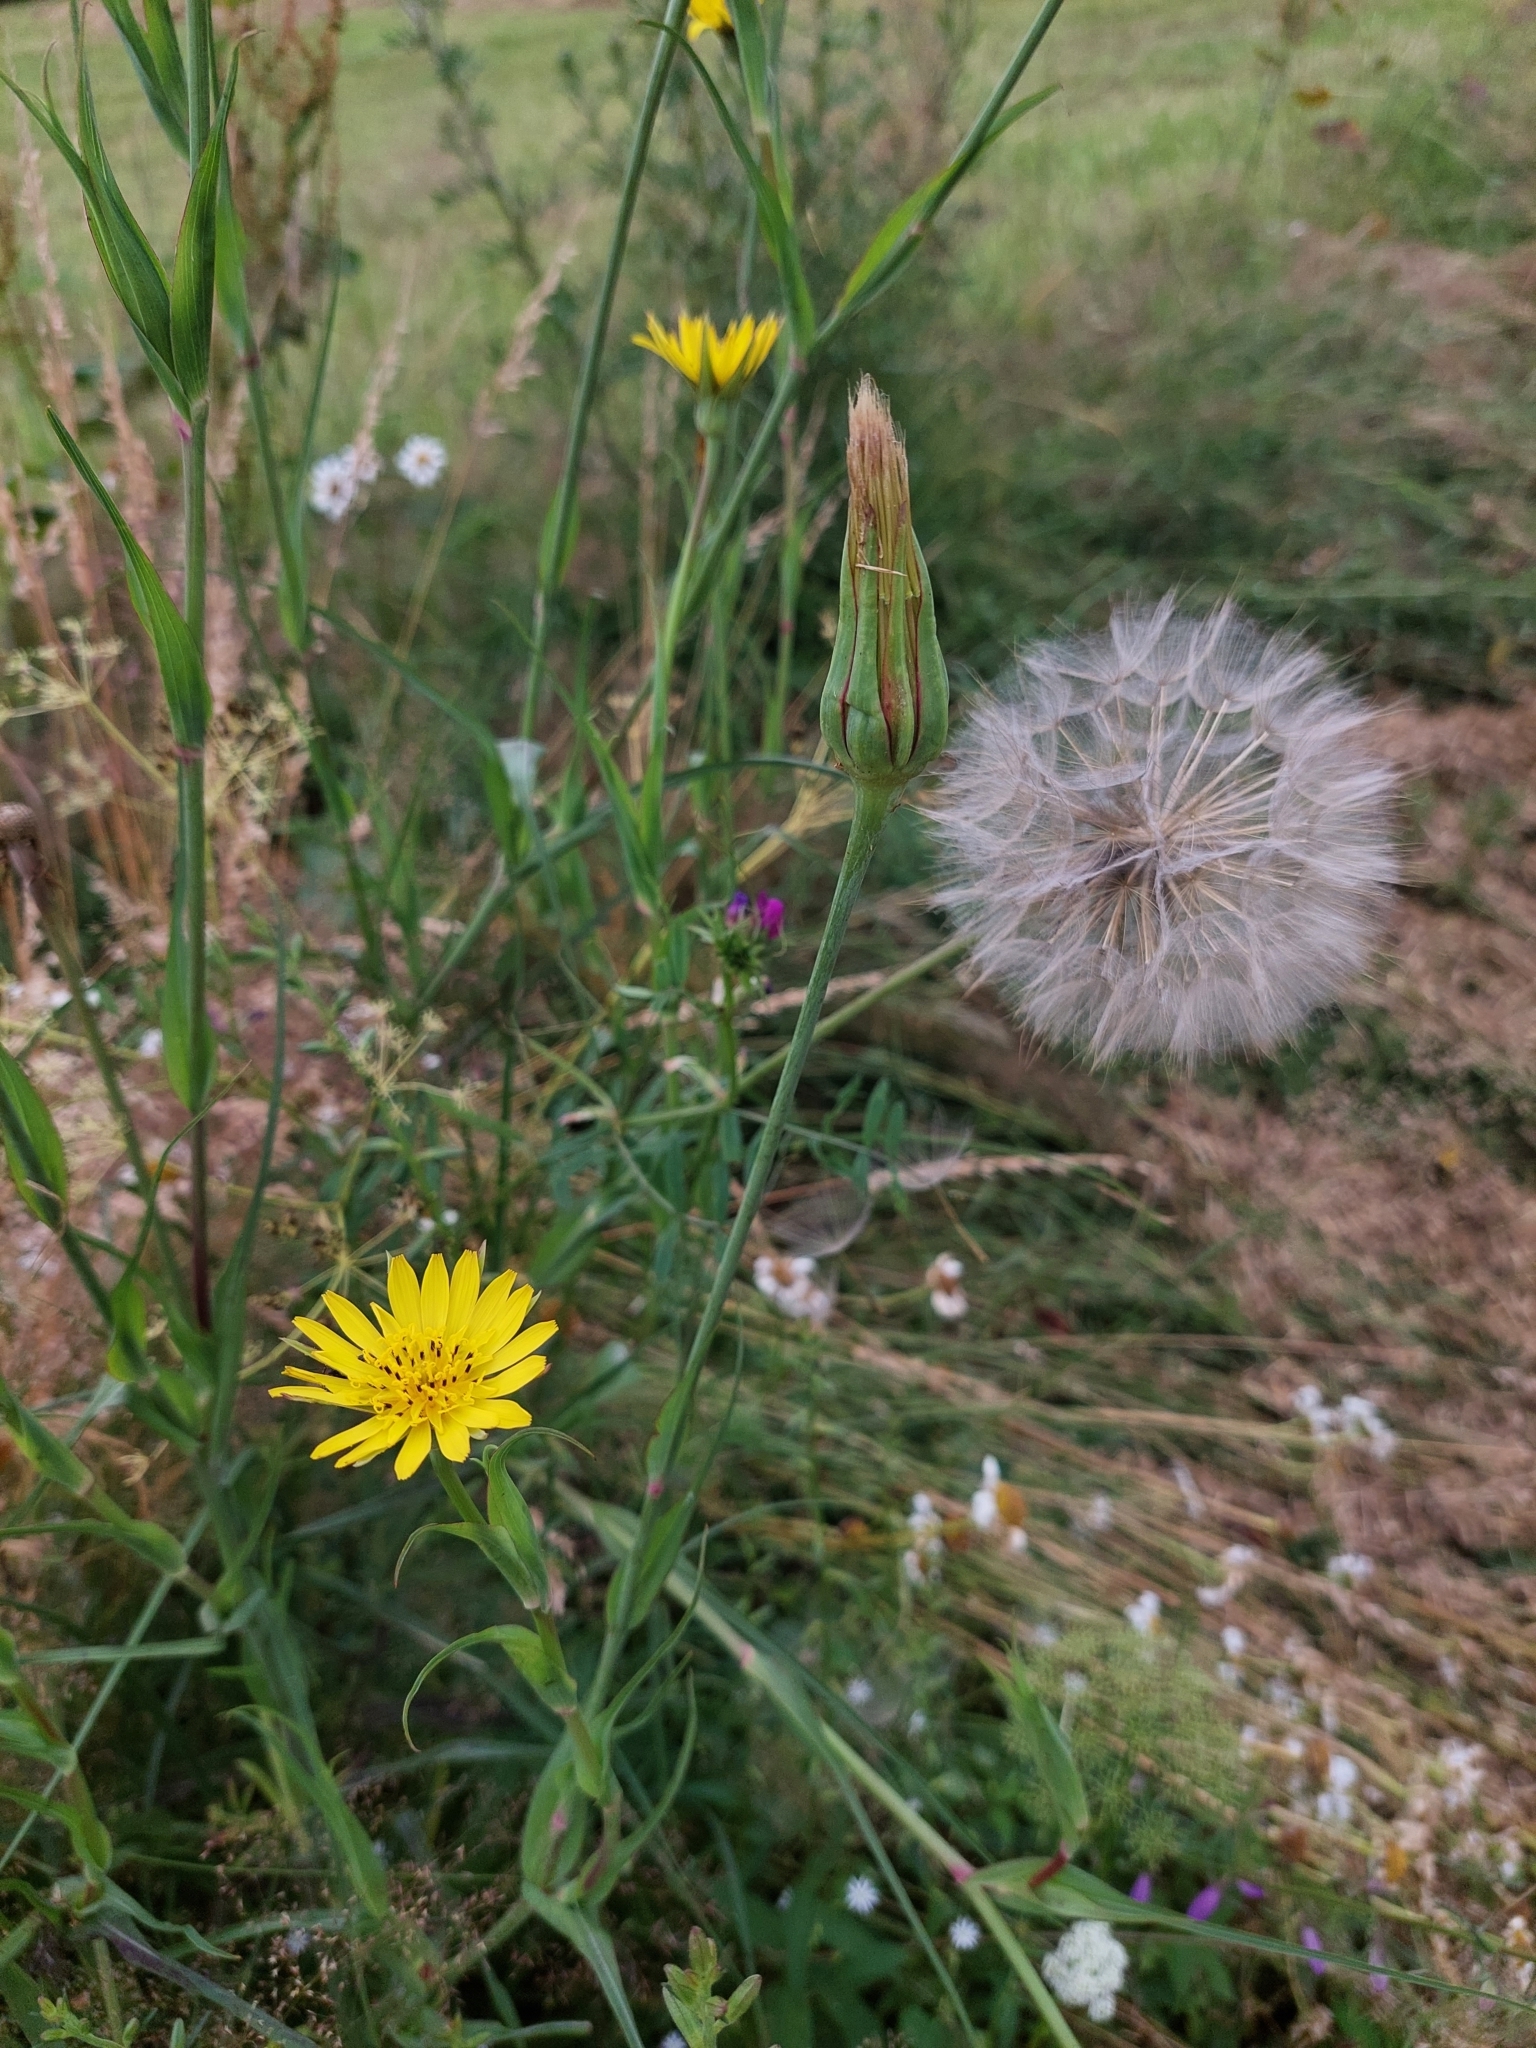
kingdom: Plantae
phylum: Tracheophyta
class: Magnoliopsida
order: Asterales
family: Asteraceae
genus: Tragopogon
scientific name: Tragopogon pratensis
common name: Goat's-beard
